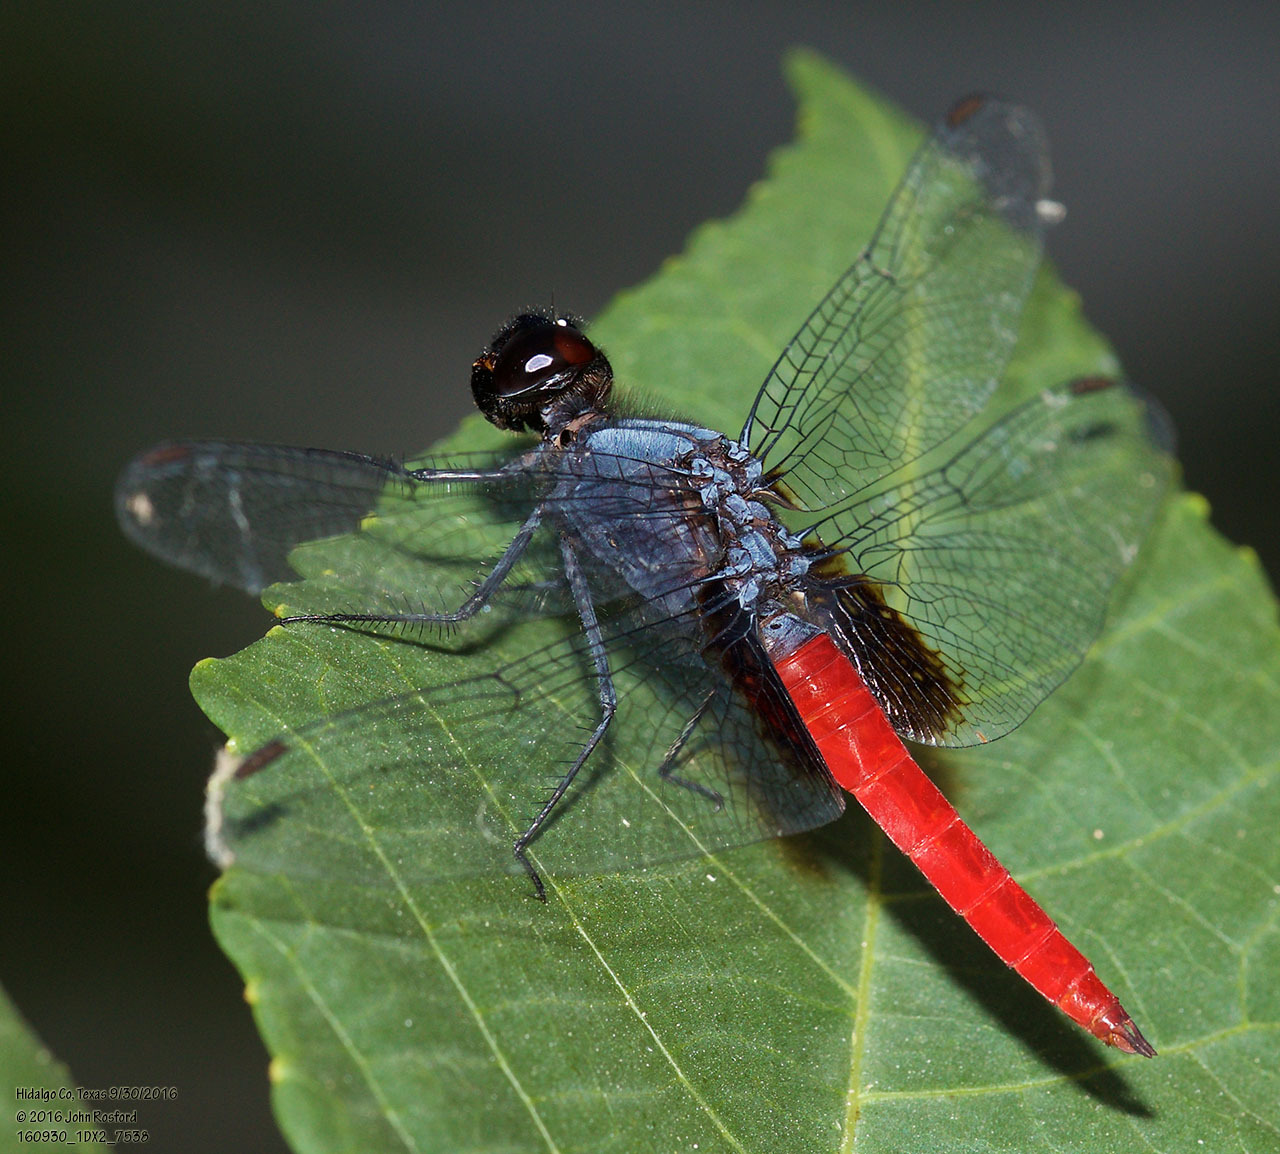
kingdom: Animalia
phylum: Arthropoda
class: Insecta
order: Odonata
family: Libellulidae
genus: Planiplax
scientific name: Planiplax sanguiniventris
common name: Mexican scarlet-tail
